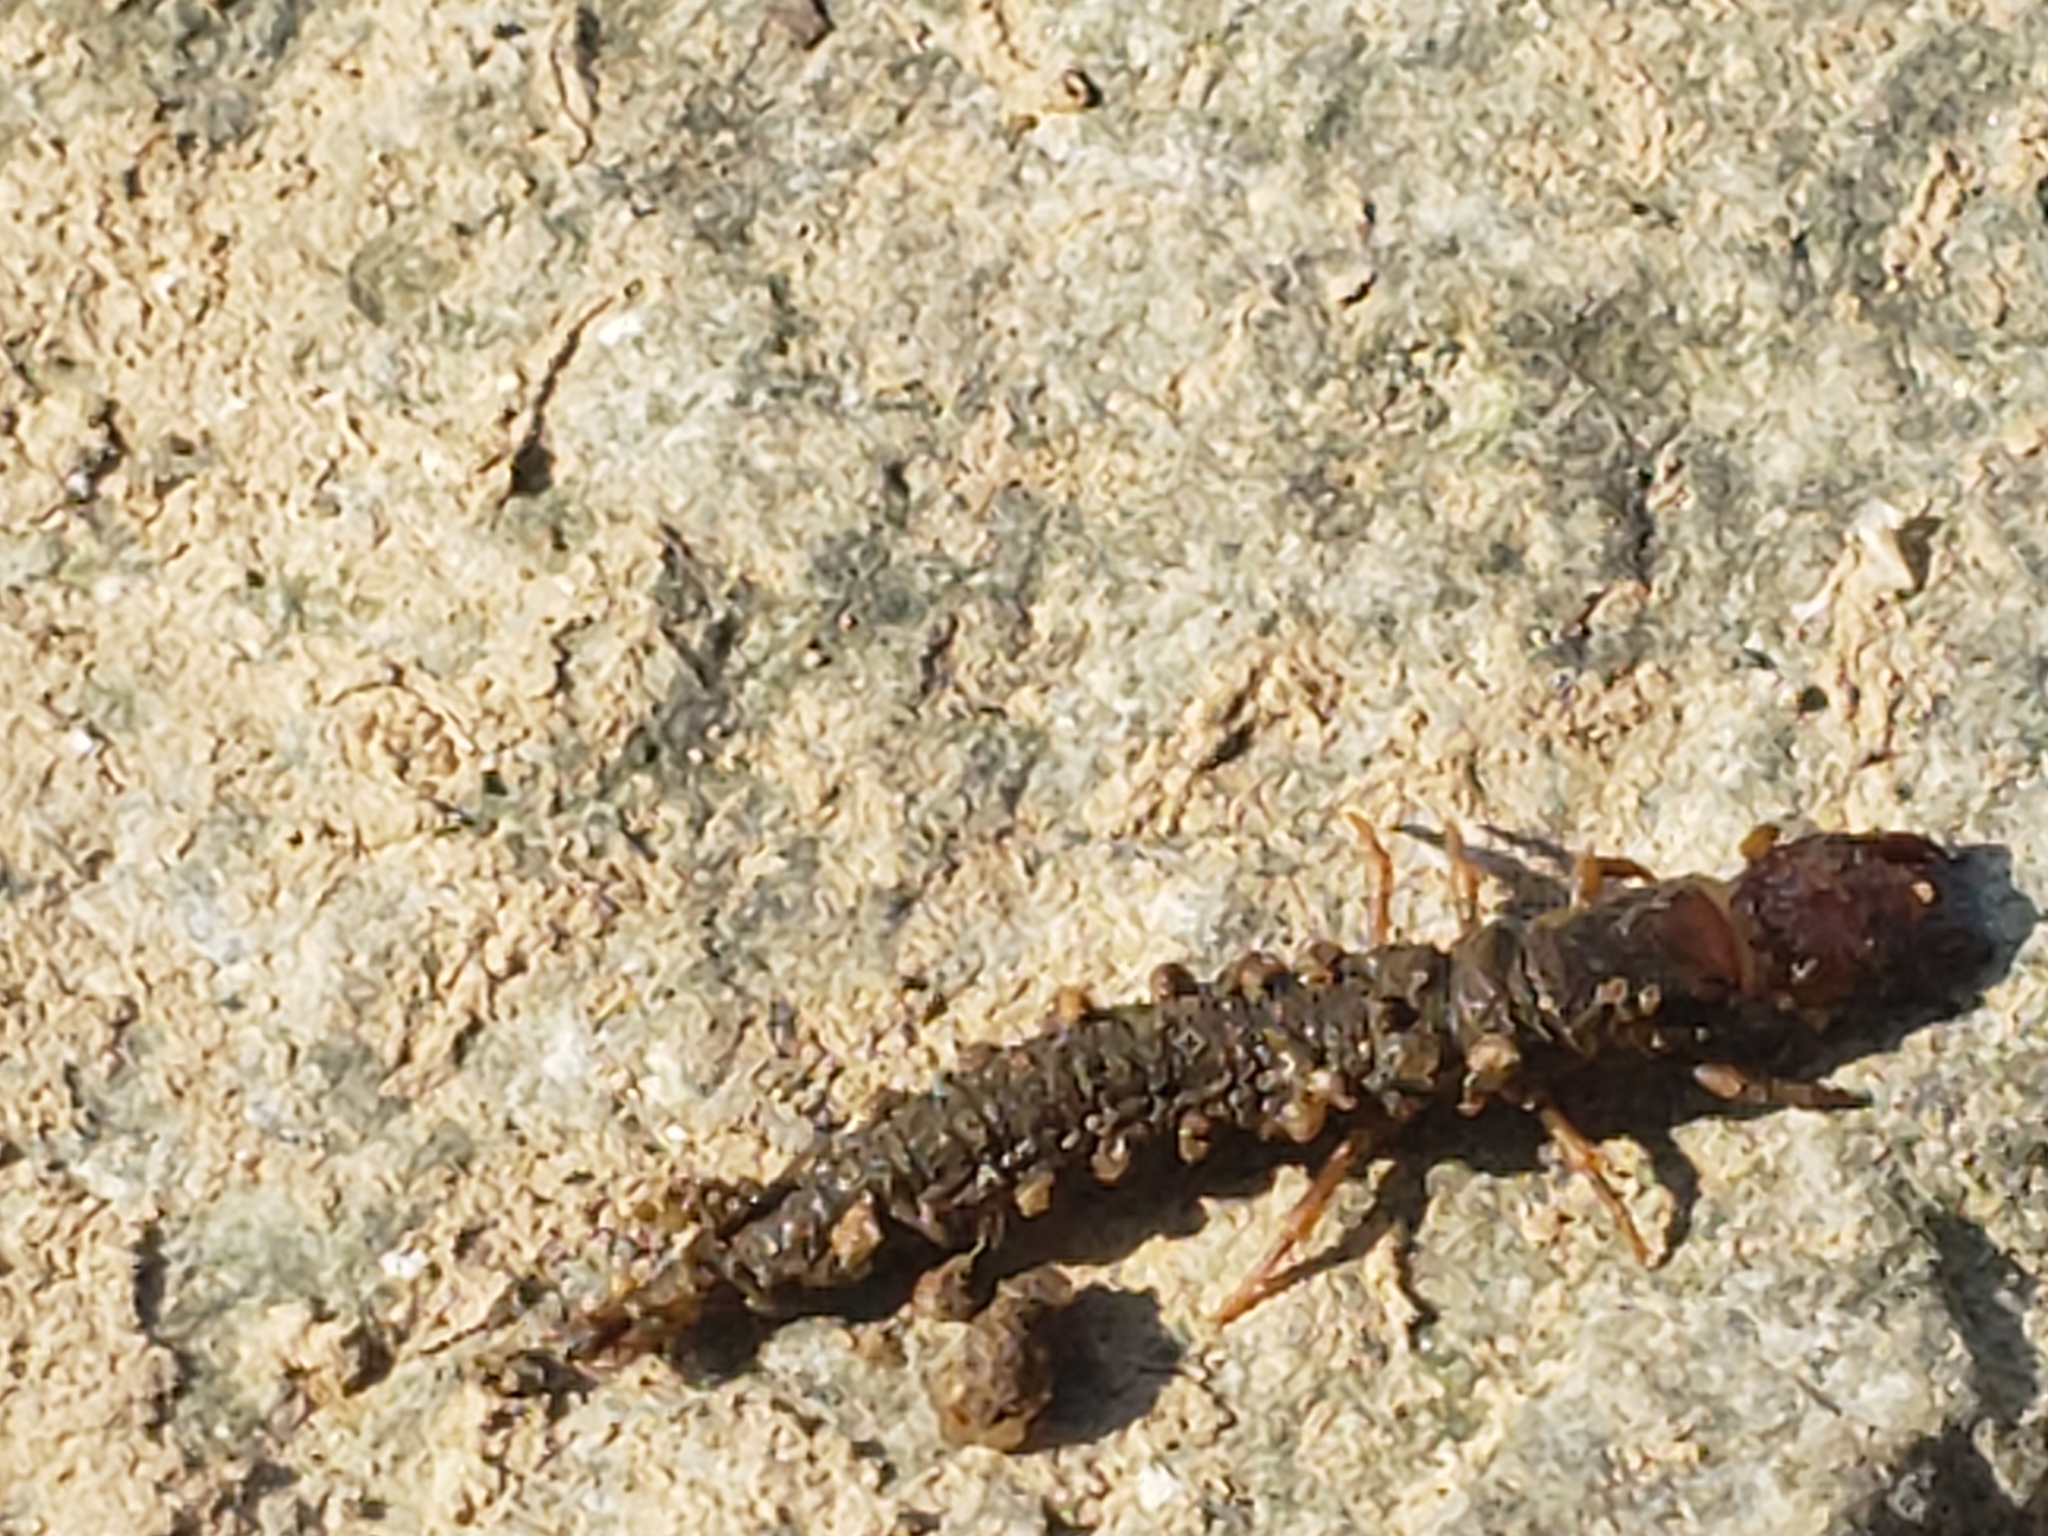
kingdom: Animalia
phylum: Arthropoda
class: Insecta
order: Megaloptera
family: Corydalidae
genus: Corydalus
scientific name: Corydalus cornutus
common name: Dobsonfly
